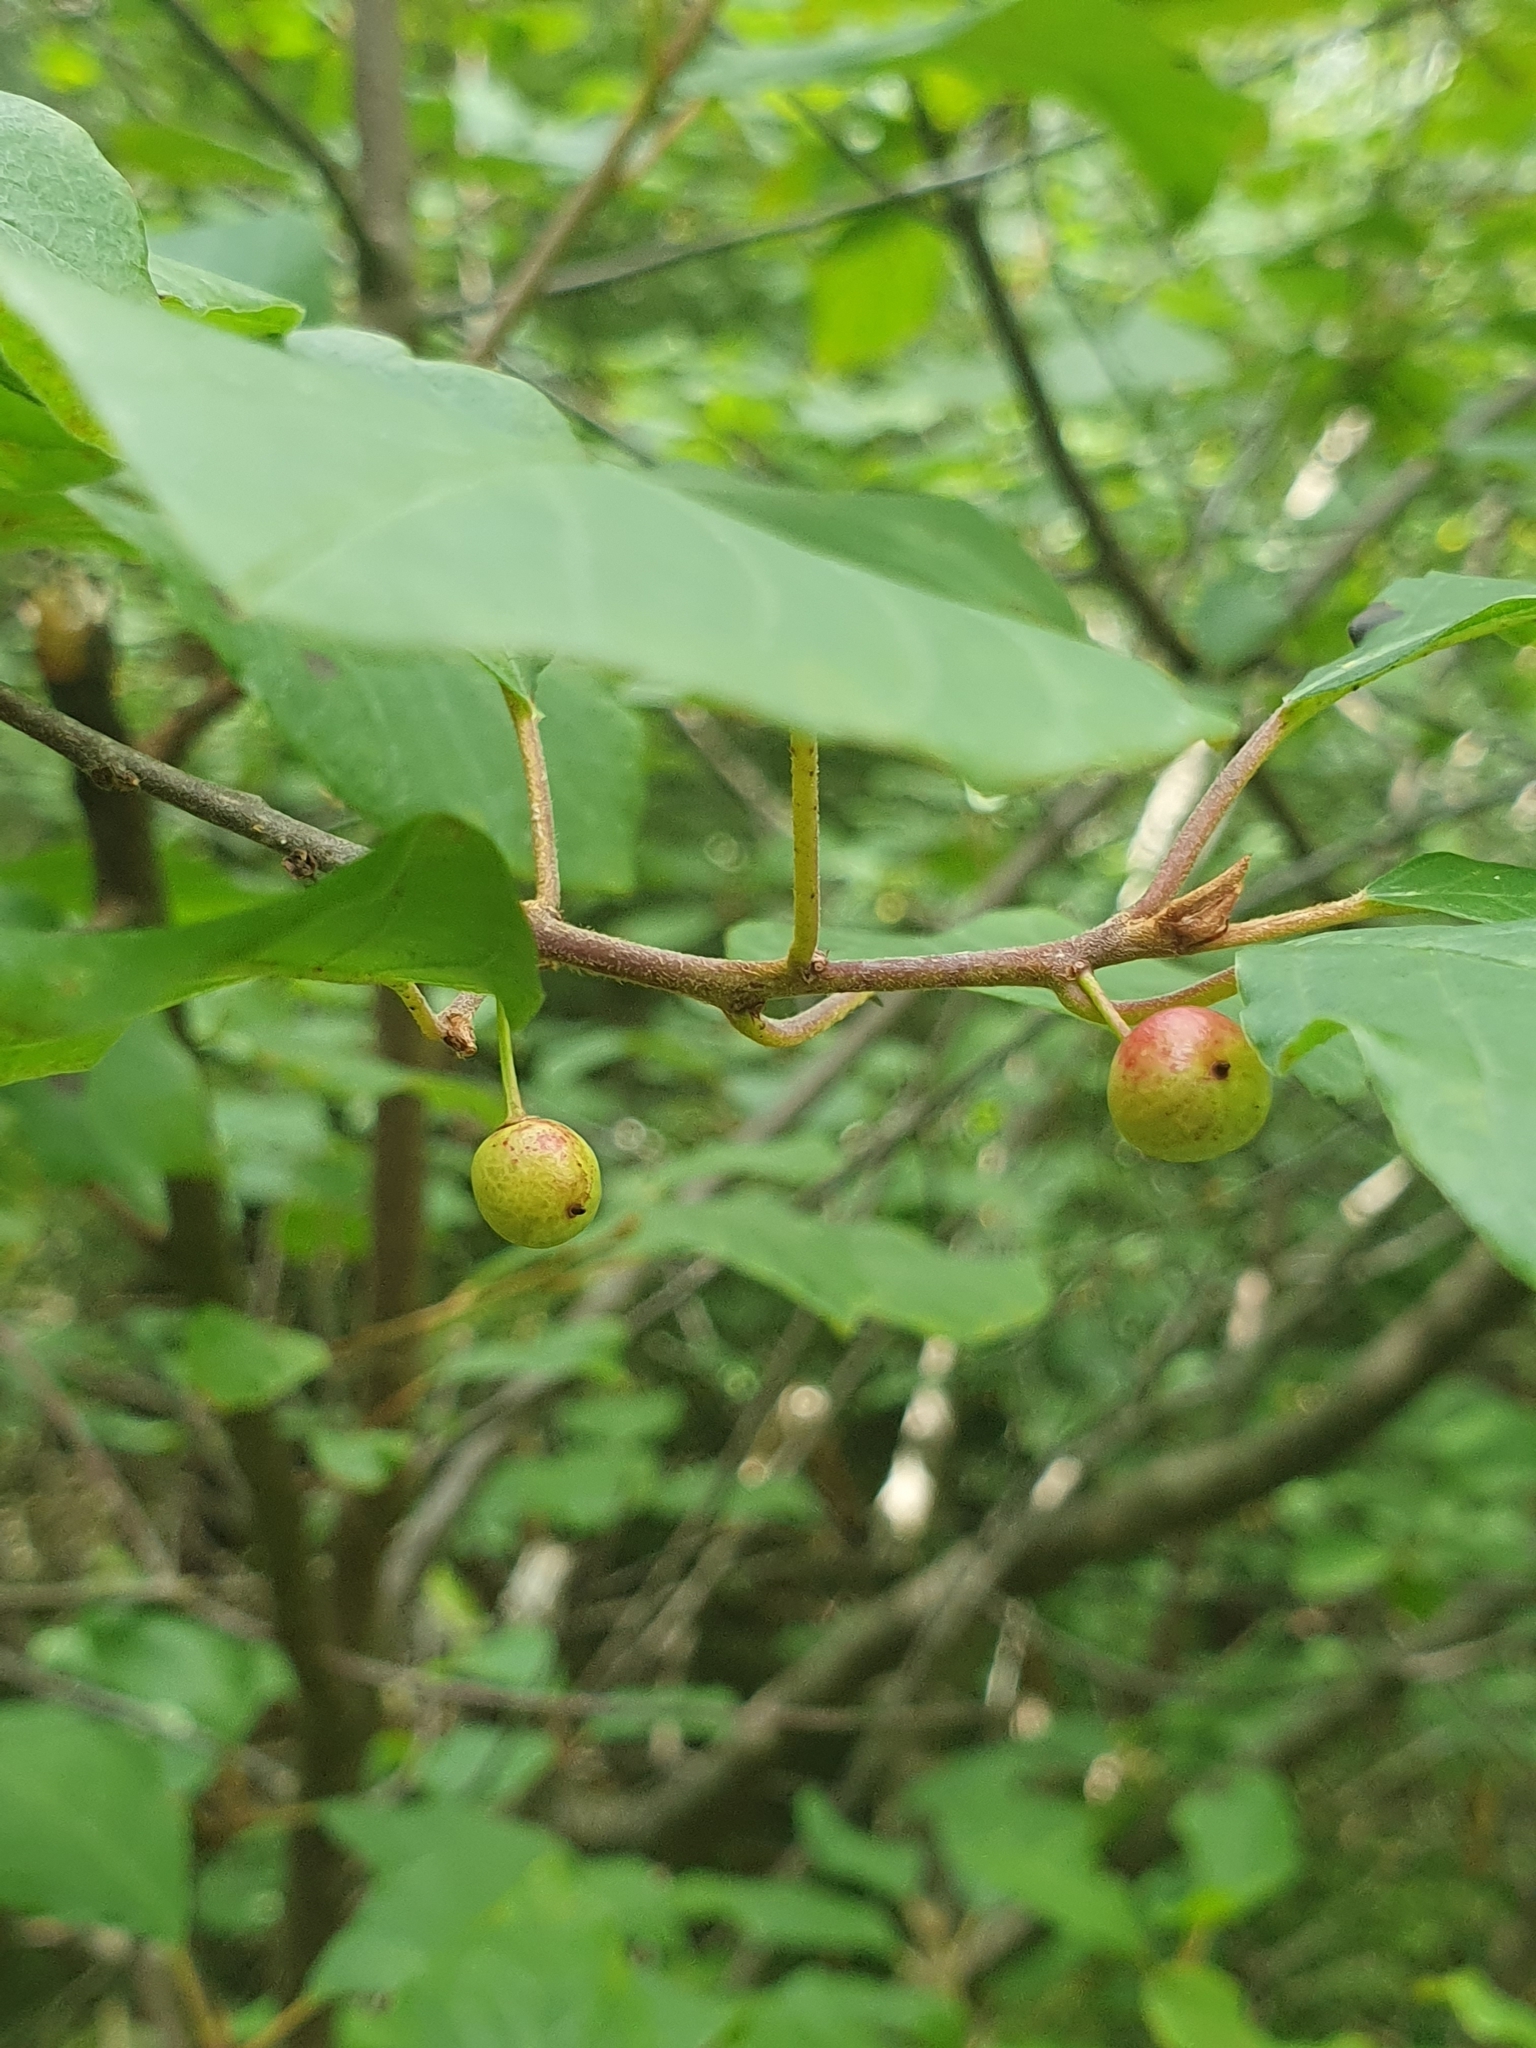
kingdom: Plantae
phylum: Tracheophyta
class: Magnoliopsida
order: Rosales
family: Rhamnaceae
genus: Frangula
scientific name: Frangula alnus
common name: Alder buckthorn
